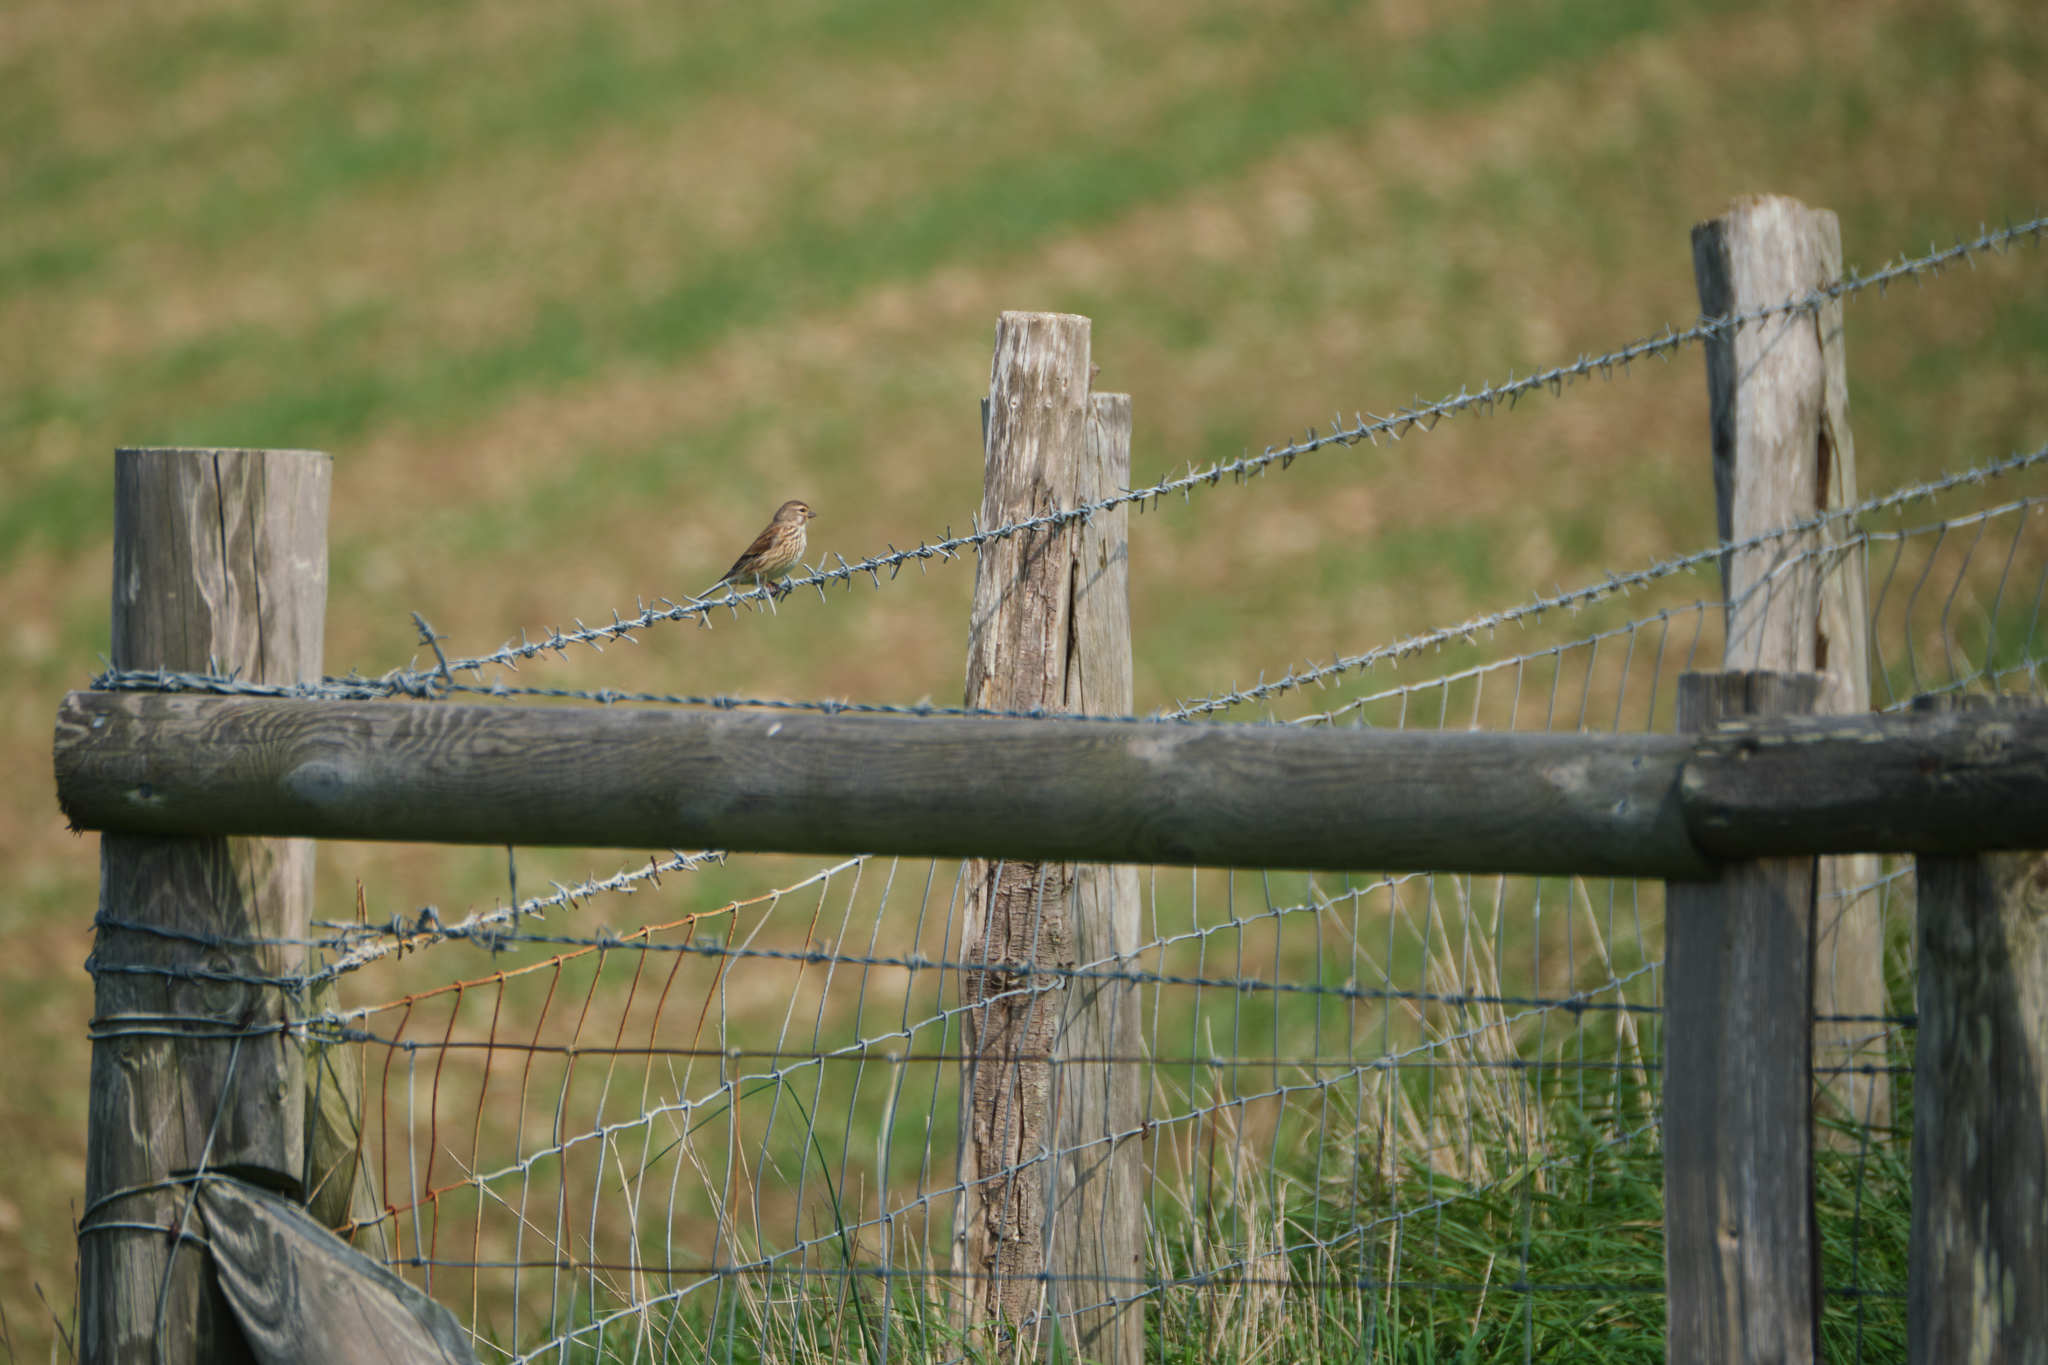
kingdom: Animalia
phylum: Chordata
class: Aves
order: Passeriformes
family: Fringillidae
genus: Linaria
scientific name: Linaria cannabina
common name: Common linnet
